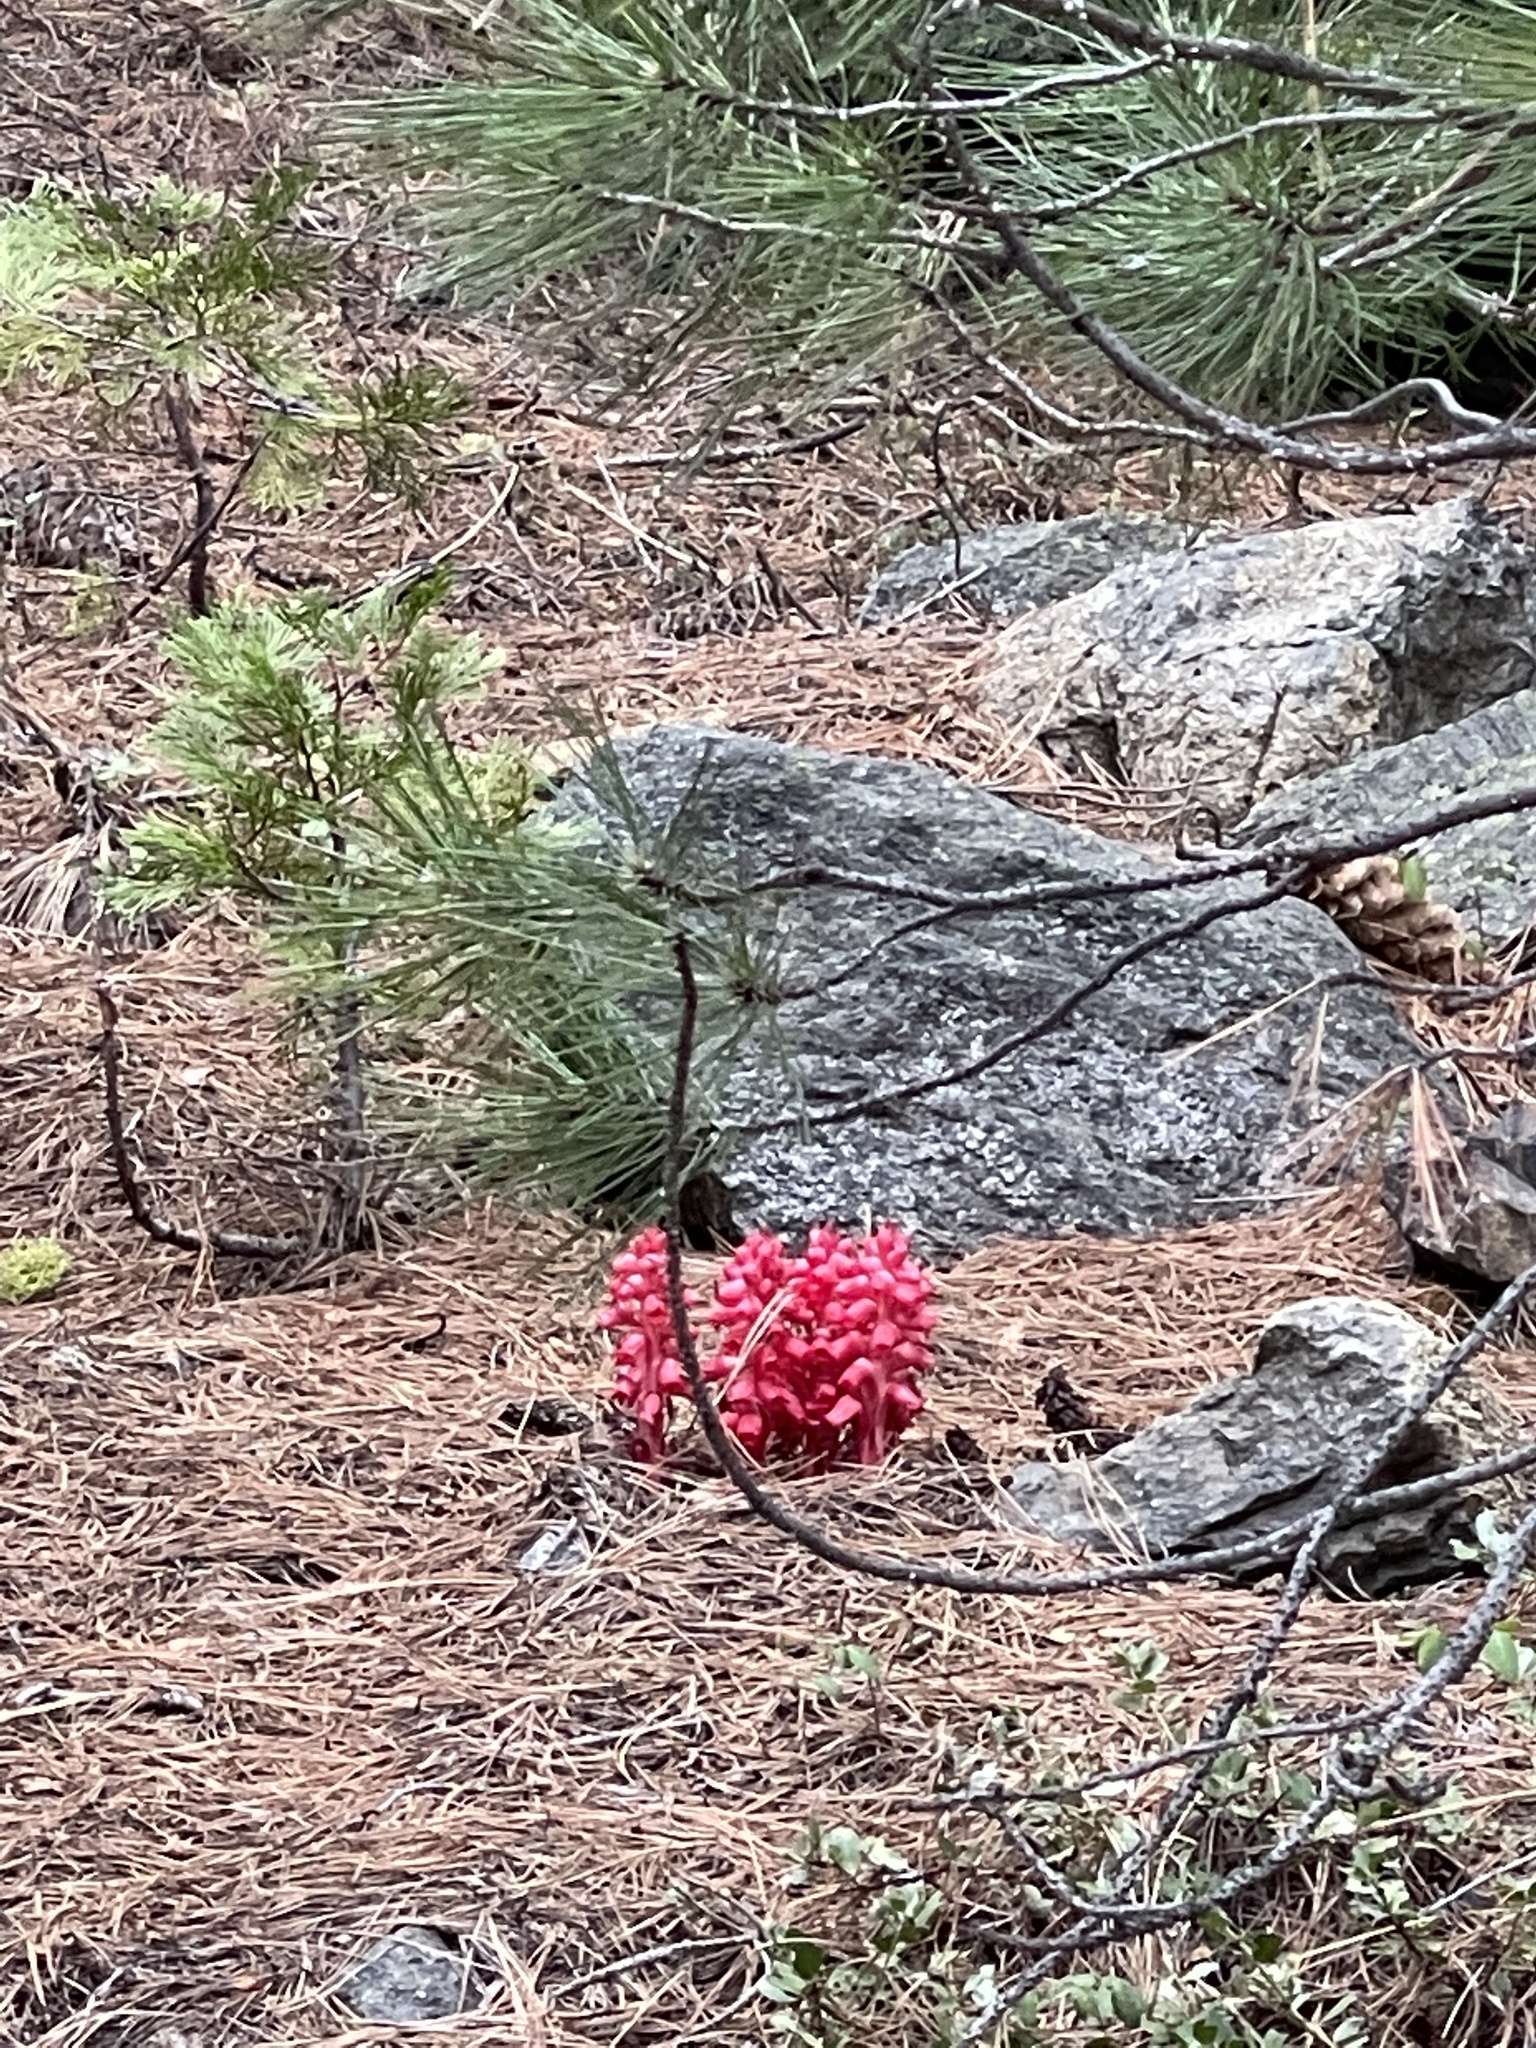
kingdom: Plantae
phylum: Tracheophyta
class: Magnoliopsida
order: Ericales
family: Ericaceae
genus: Sarcodes
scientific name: Sarcodes sanguinea
